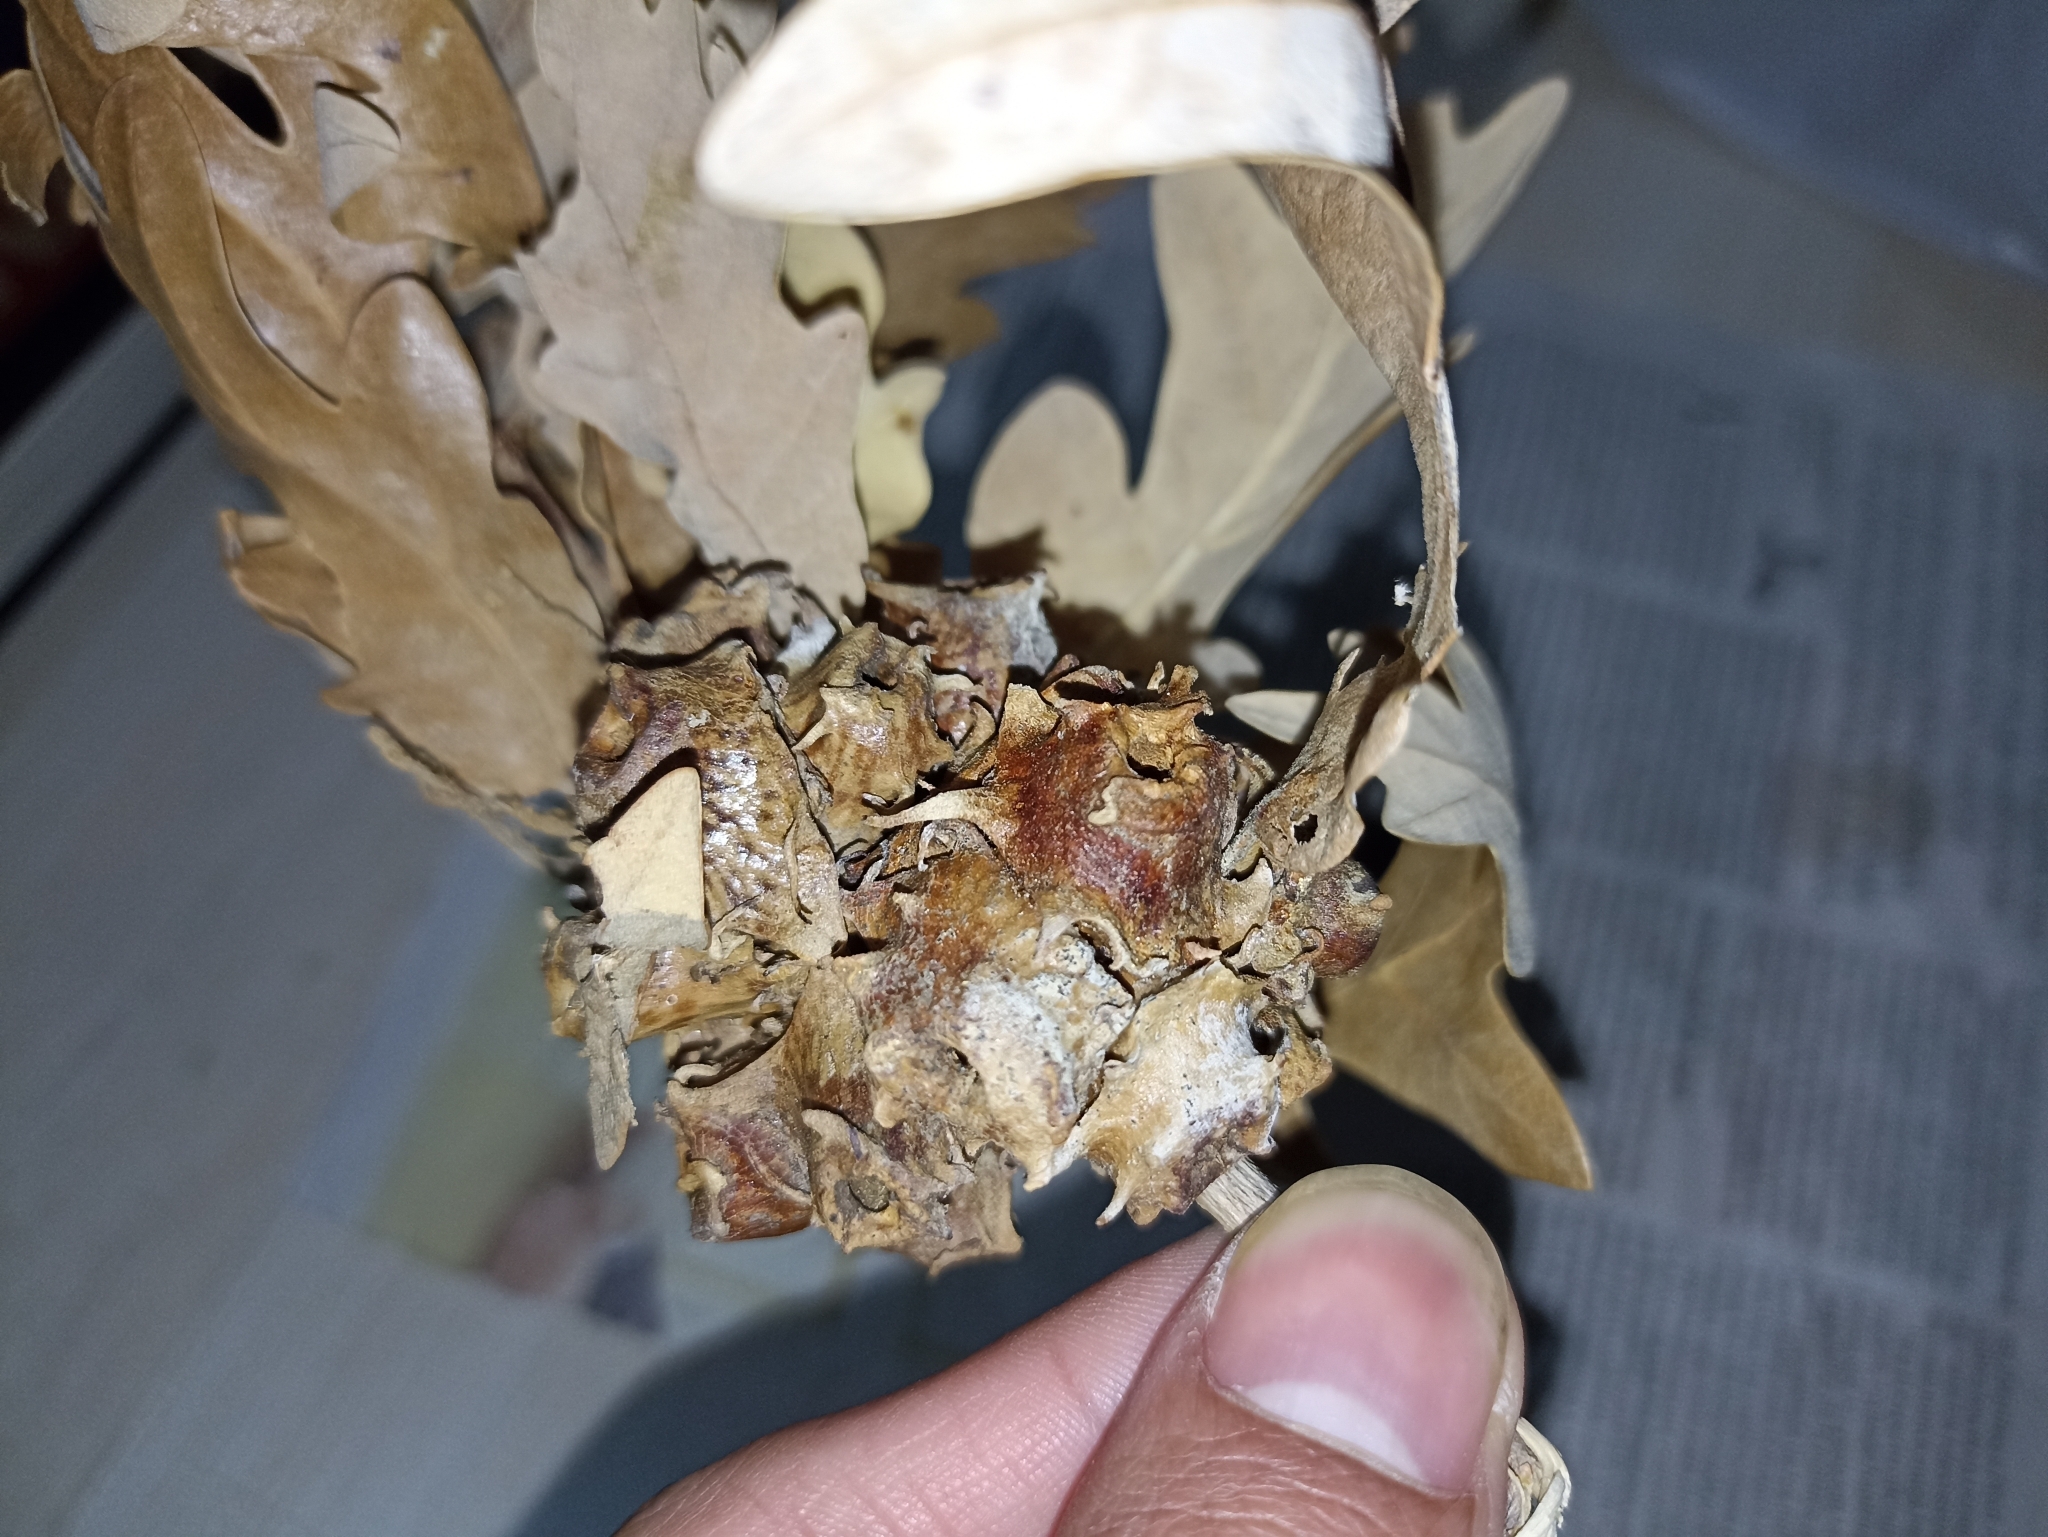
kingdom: Animalia
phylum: Arthropoda
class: Insecta
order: Hymenoptera
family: Cynipidae
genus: Andricus
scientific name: Andricus pictus
